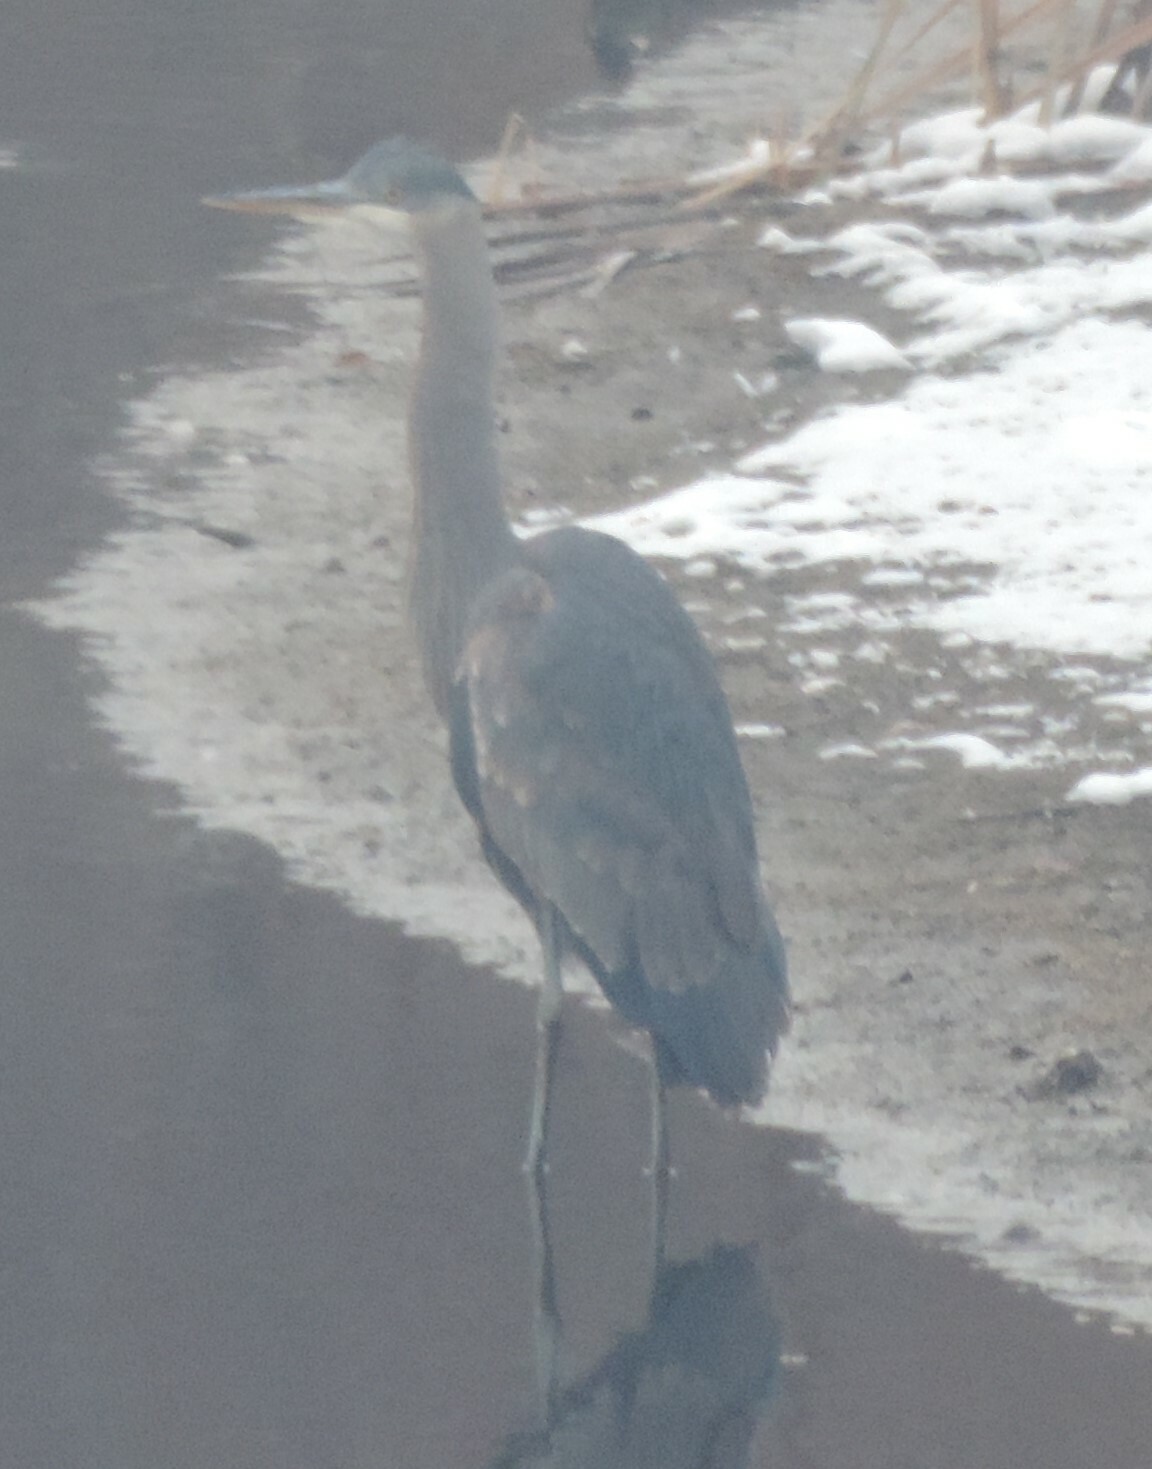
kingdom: Animalia
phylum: Chordata
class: Aves
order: Pelecaniformes
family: Ardeidae
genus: Ardea
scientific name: Ardea herodias
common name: Great blue heron
